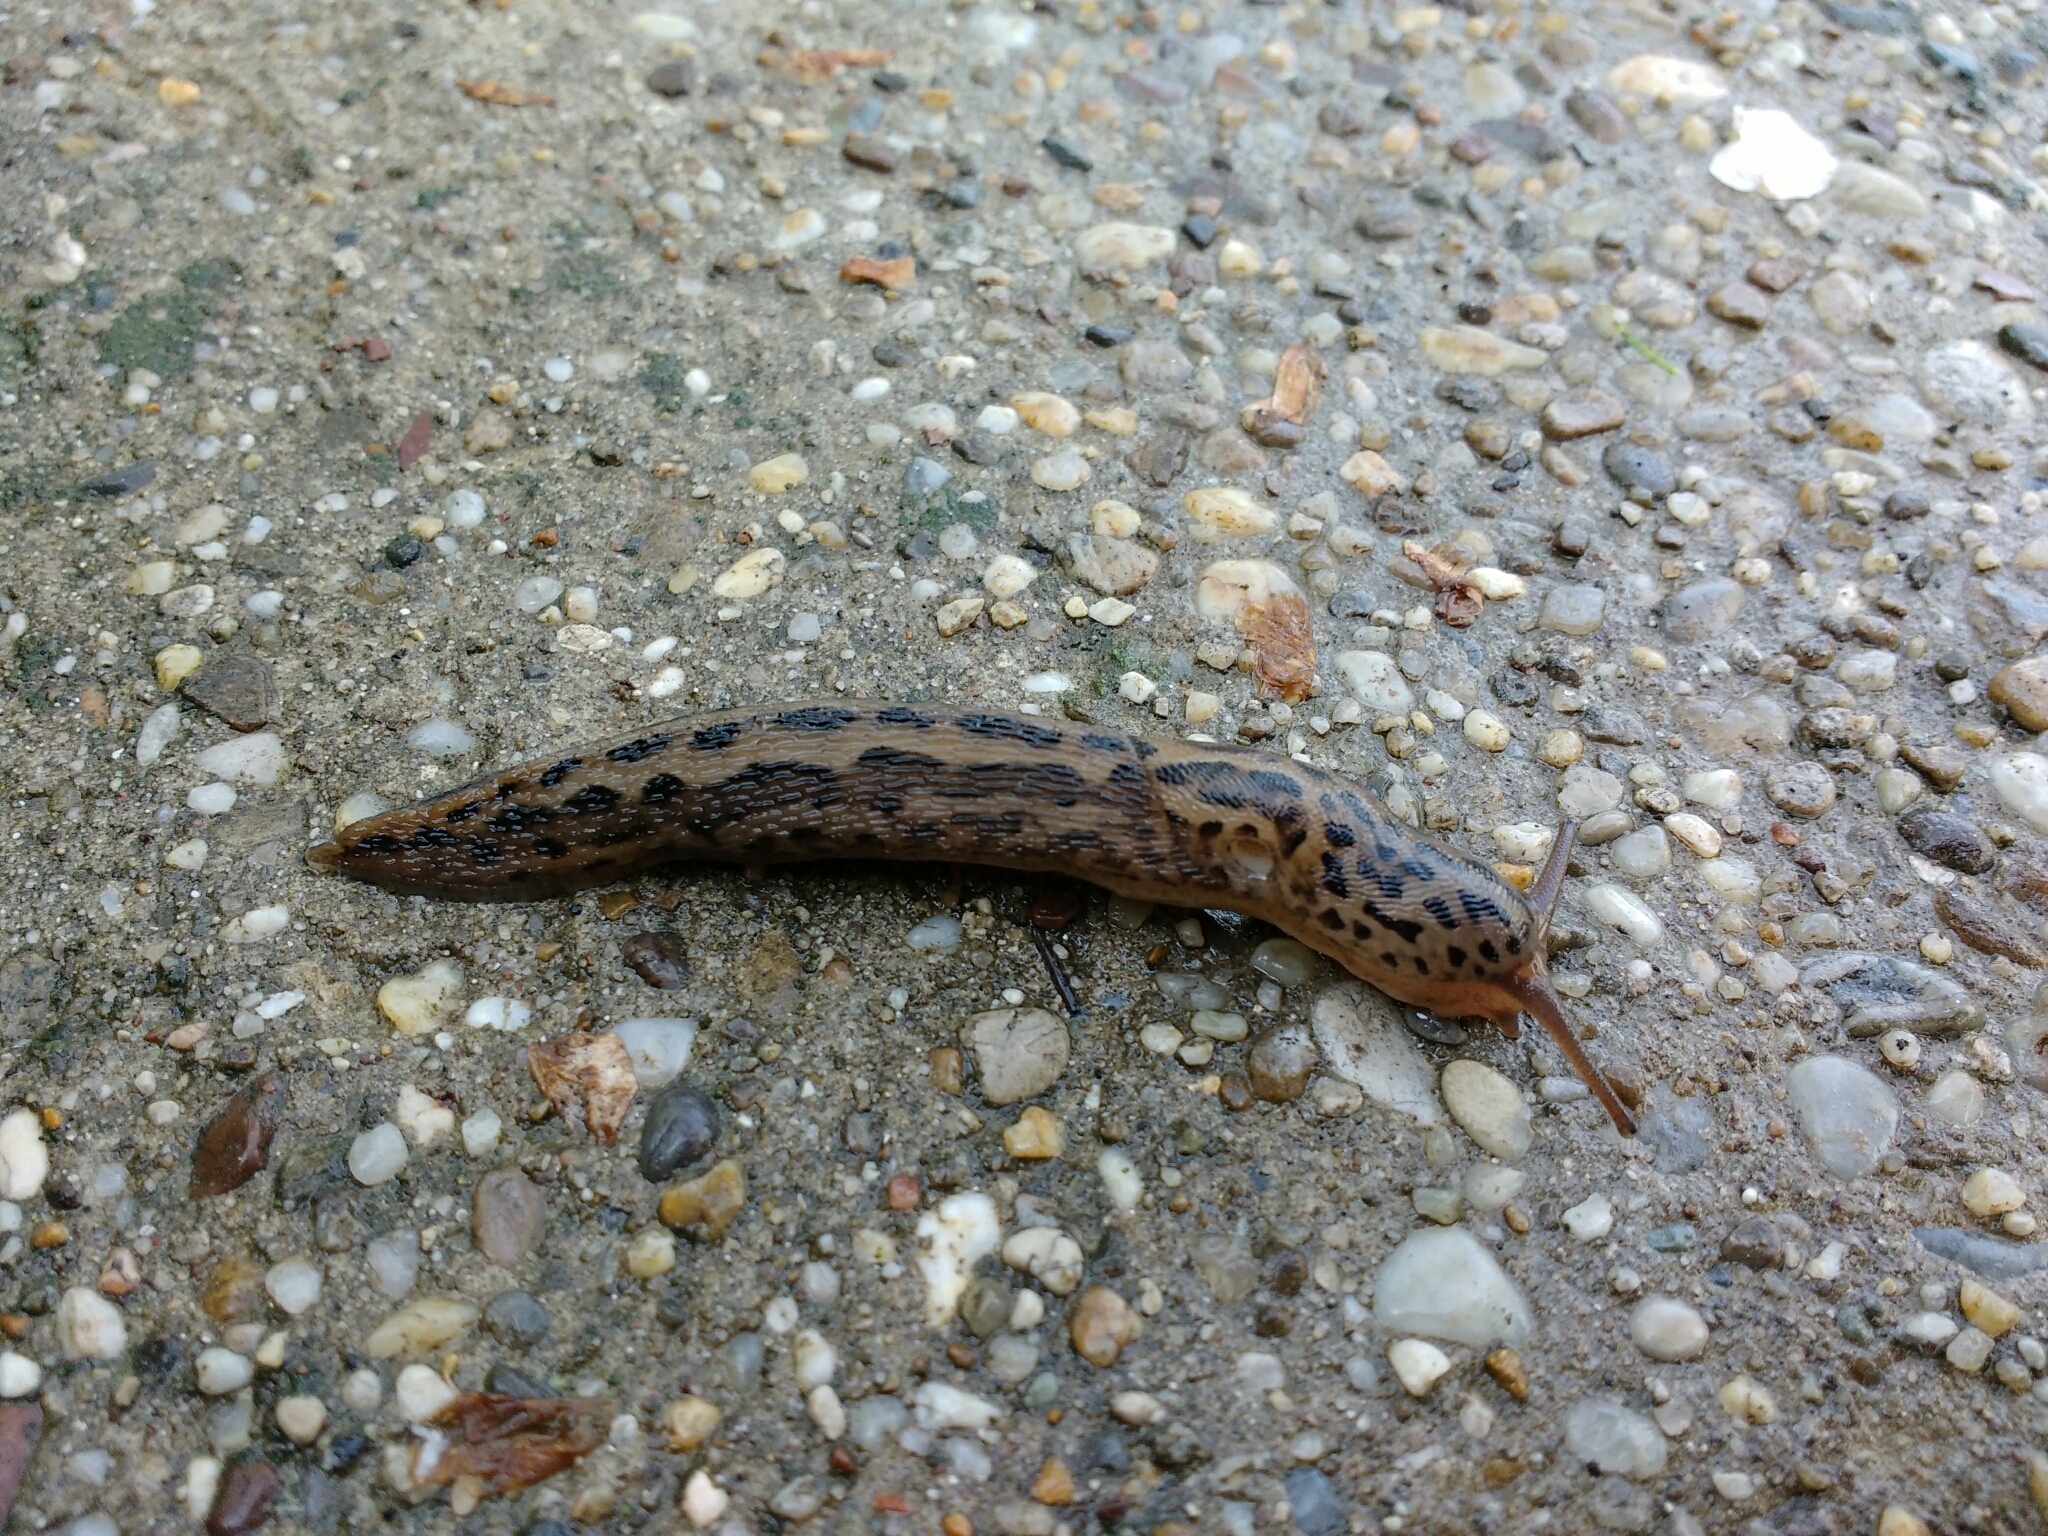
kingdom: Animalia
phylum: Mollusca
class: Gastropoda
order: Stylommatophora
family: Limacidae
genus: Limax
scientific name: Limax maximus
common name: Great grey slug
